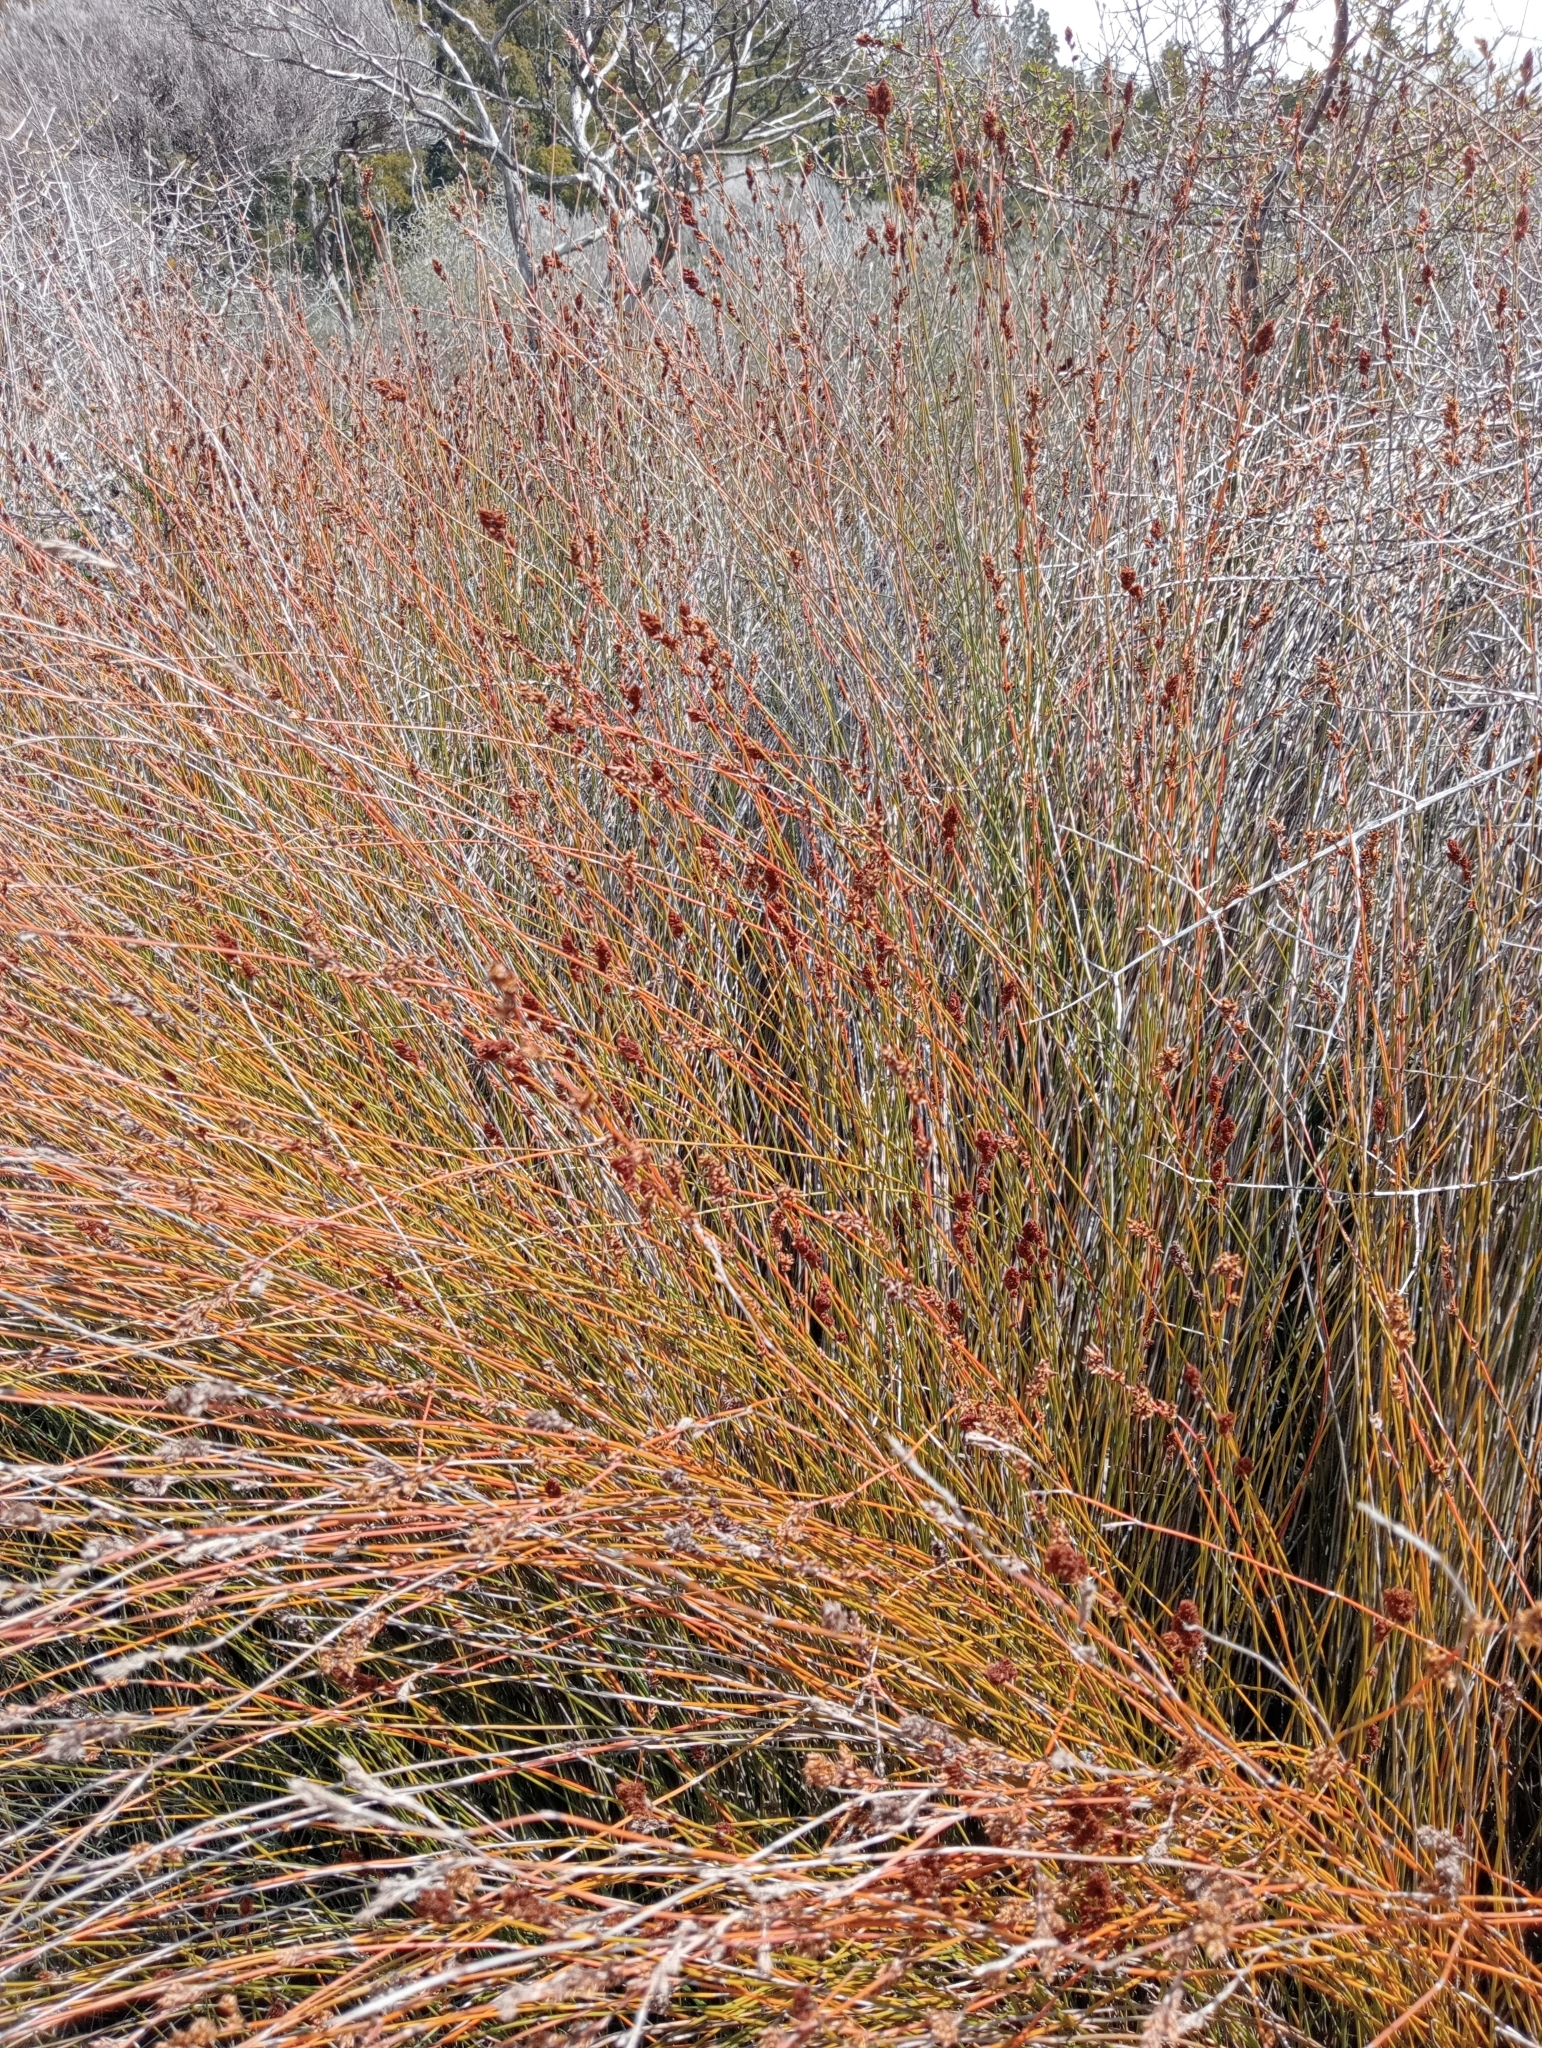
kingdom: Plantae
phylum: Tracheophyta
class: Liliopsida
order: Poales
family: Restionaceae
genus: Apodasmia
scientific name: Apodasmia similis
